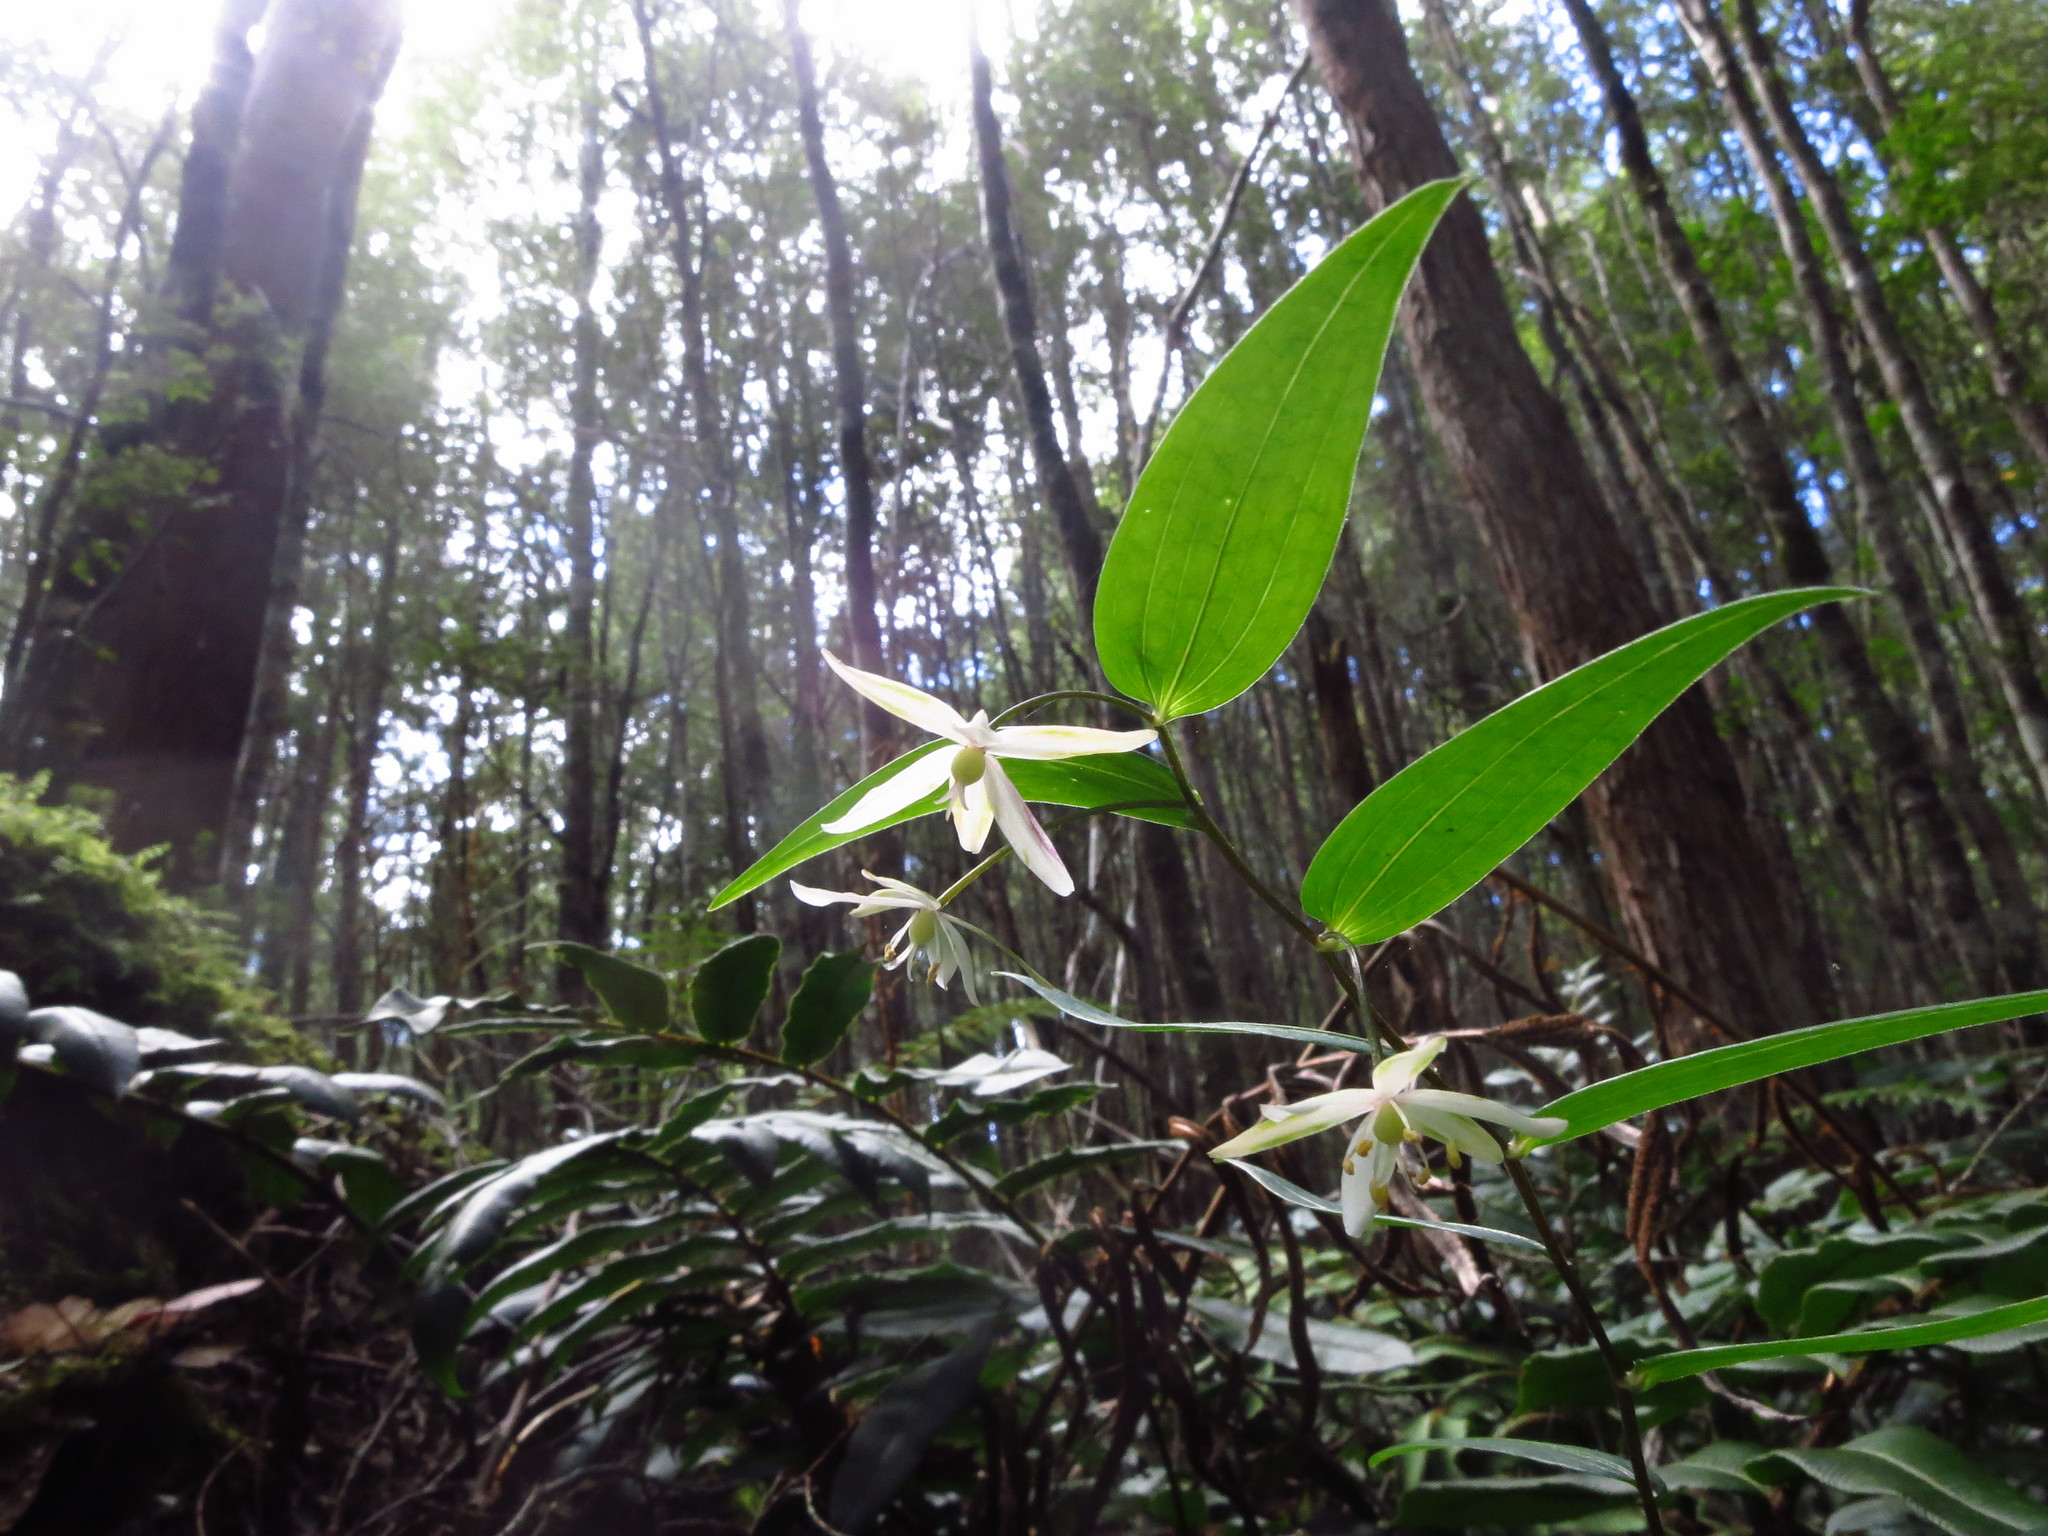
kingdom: Plantae
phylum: Tracheophyta
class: Liliopsida
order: Liliales
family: Alstroemeriaceae
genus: Drymophila
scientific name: Drymophila cyanocarpa
